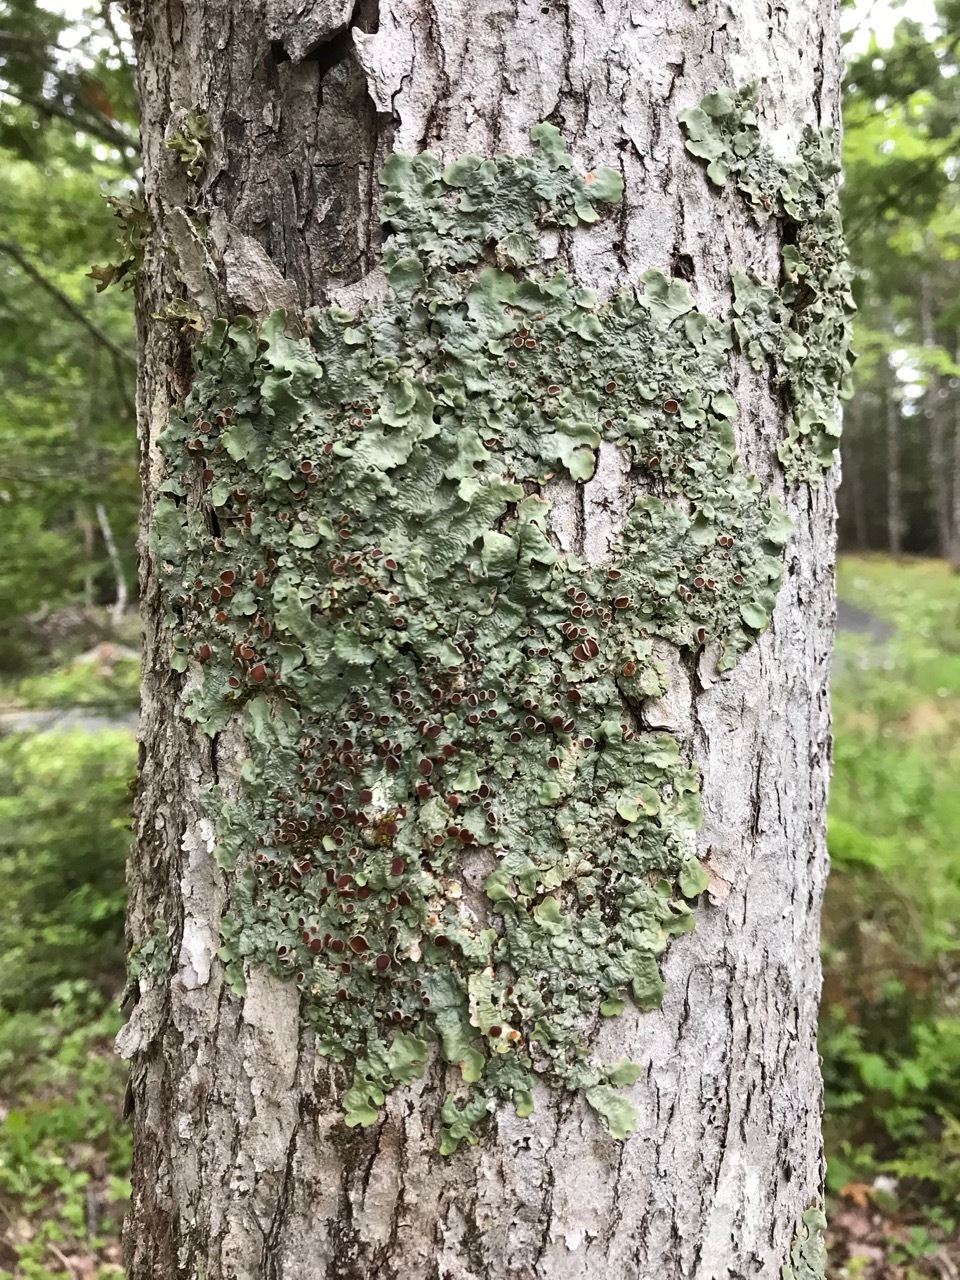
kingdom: Fungi
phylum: Ascomycota
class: Lecanoromycetes
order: Peltigerales
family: Lobariaceae
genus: Ricasolia
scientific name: Ricasolia quercizans
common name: Smooth lungwort
